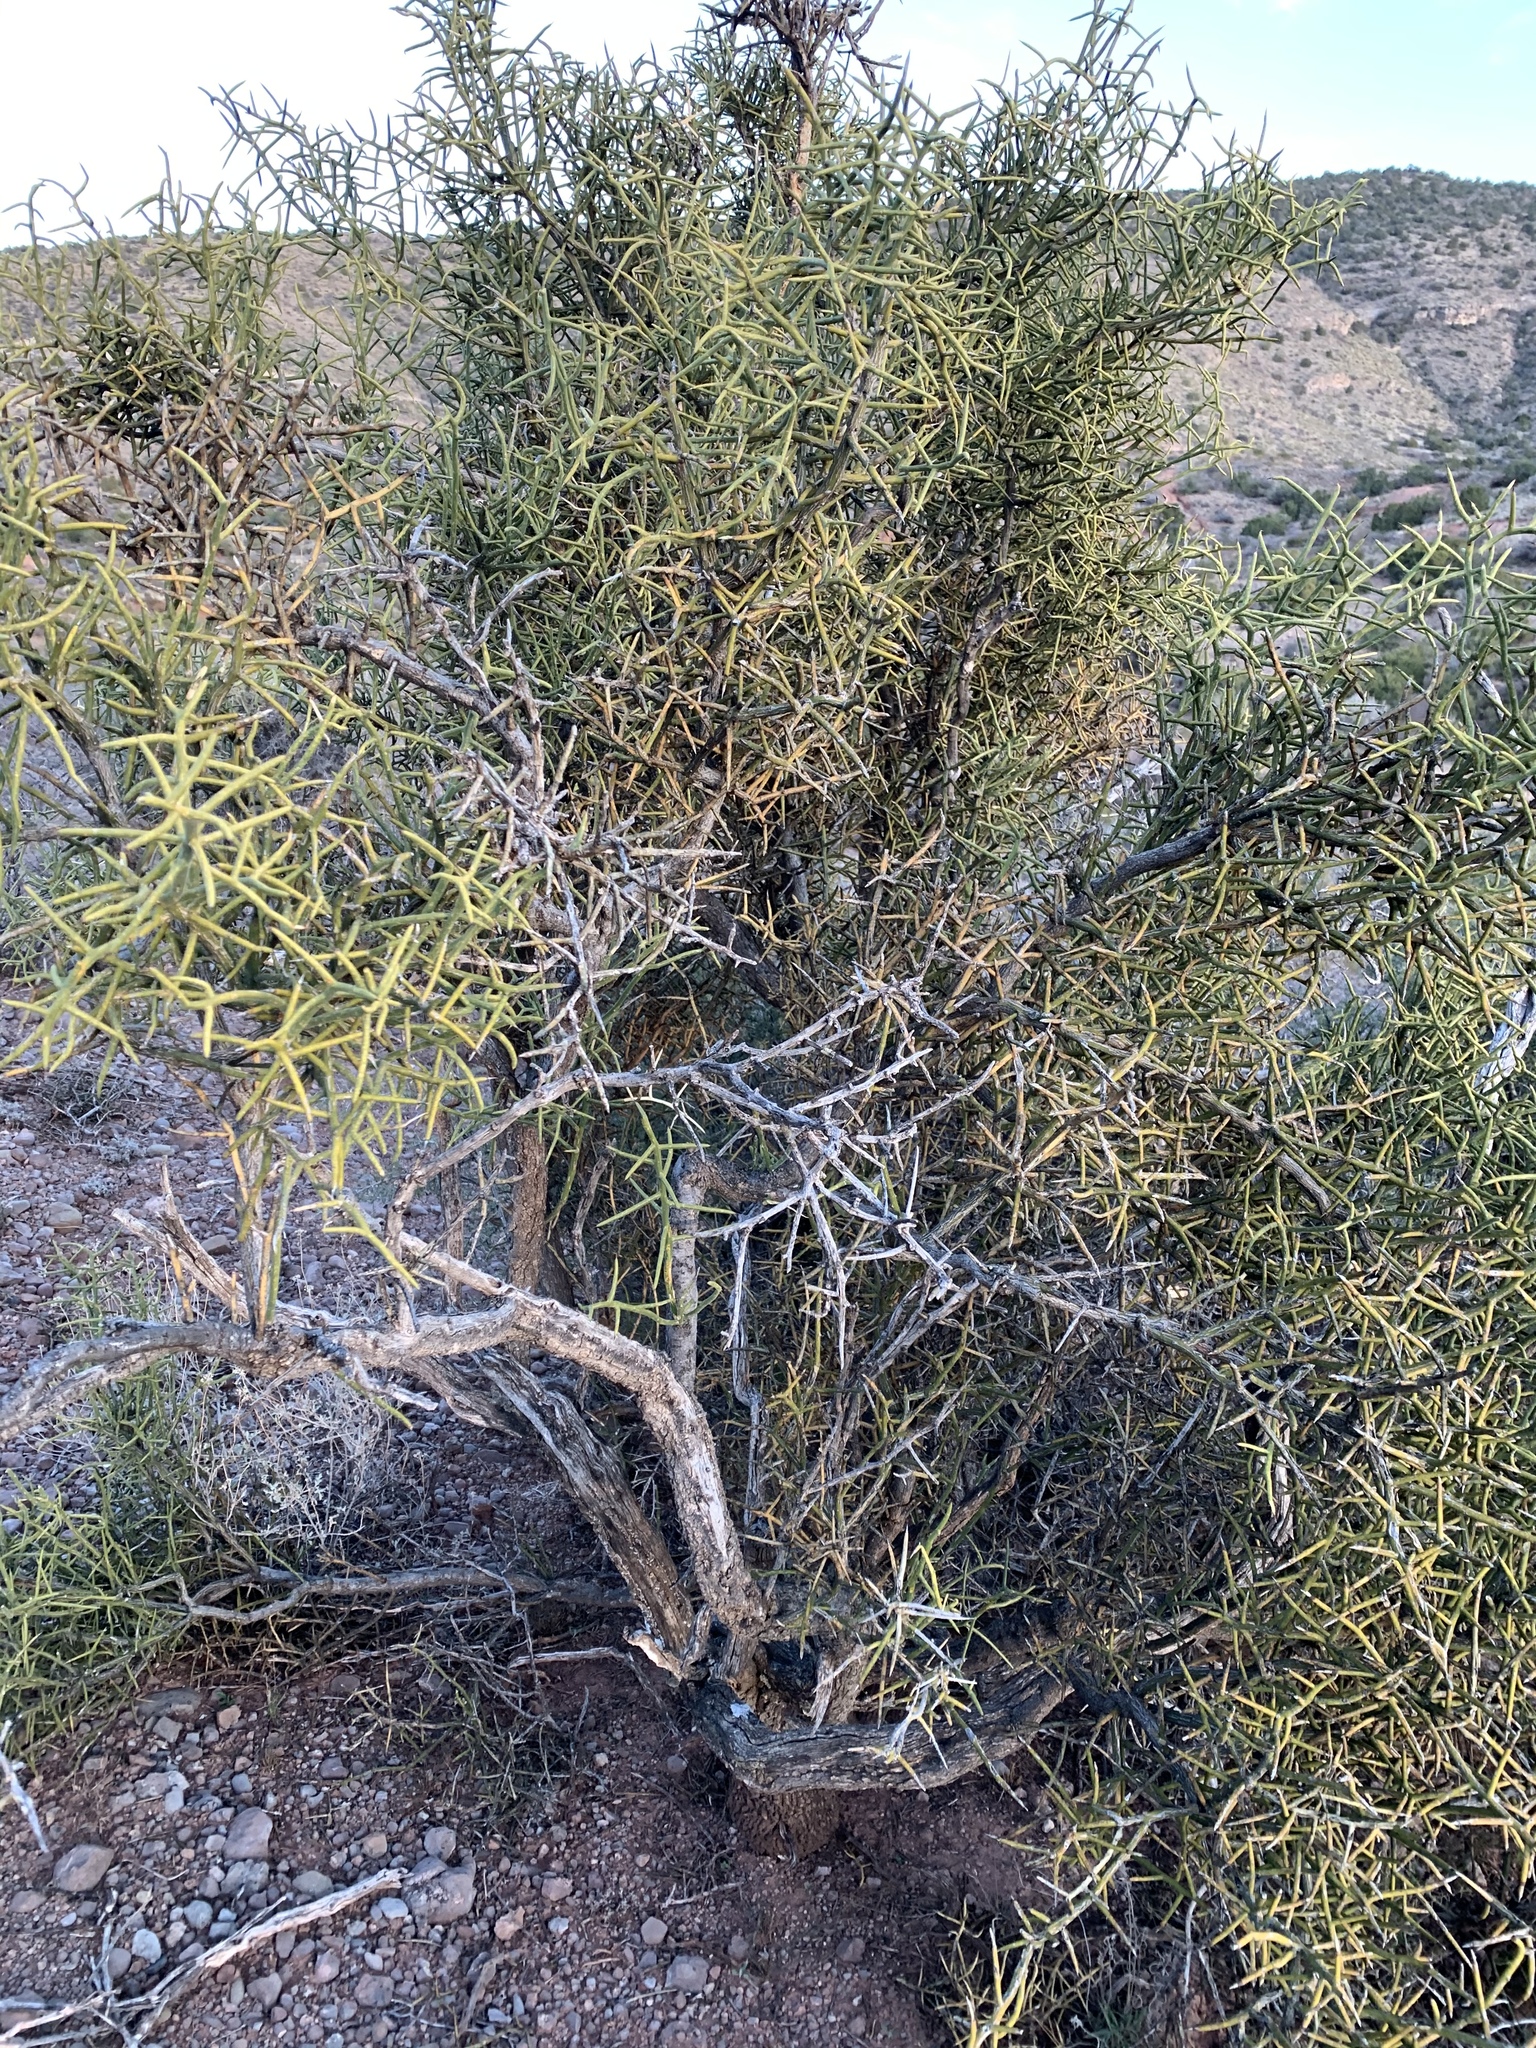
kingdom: Plantae
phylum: Tracheophyta
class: Magnoliopsida
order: Brassicales
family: Koeberliniaceae
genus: Koeberlinia
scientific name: Koeberlinia spinosa
